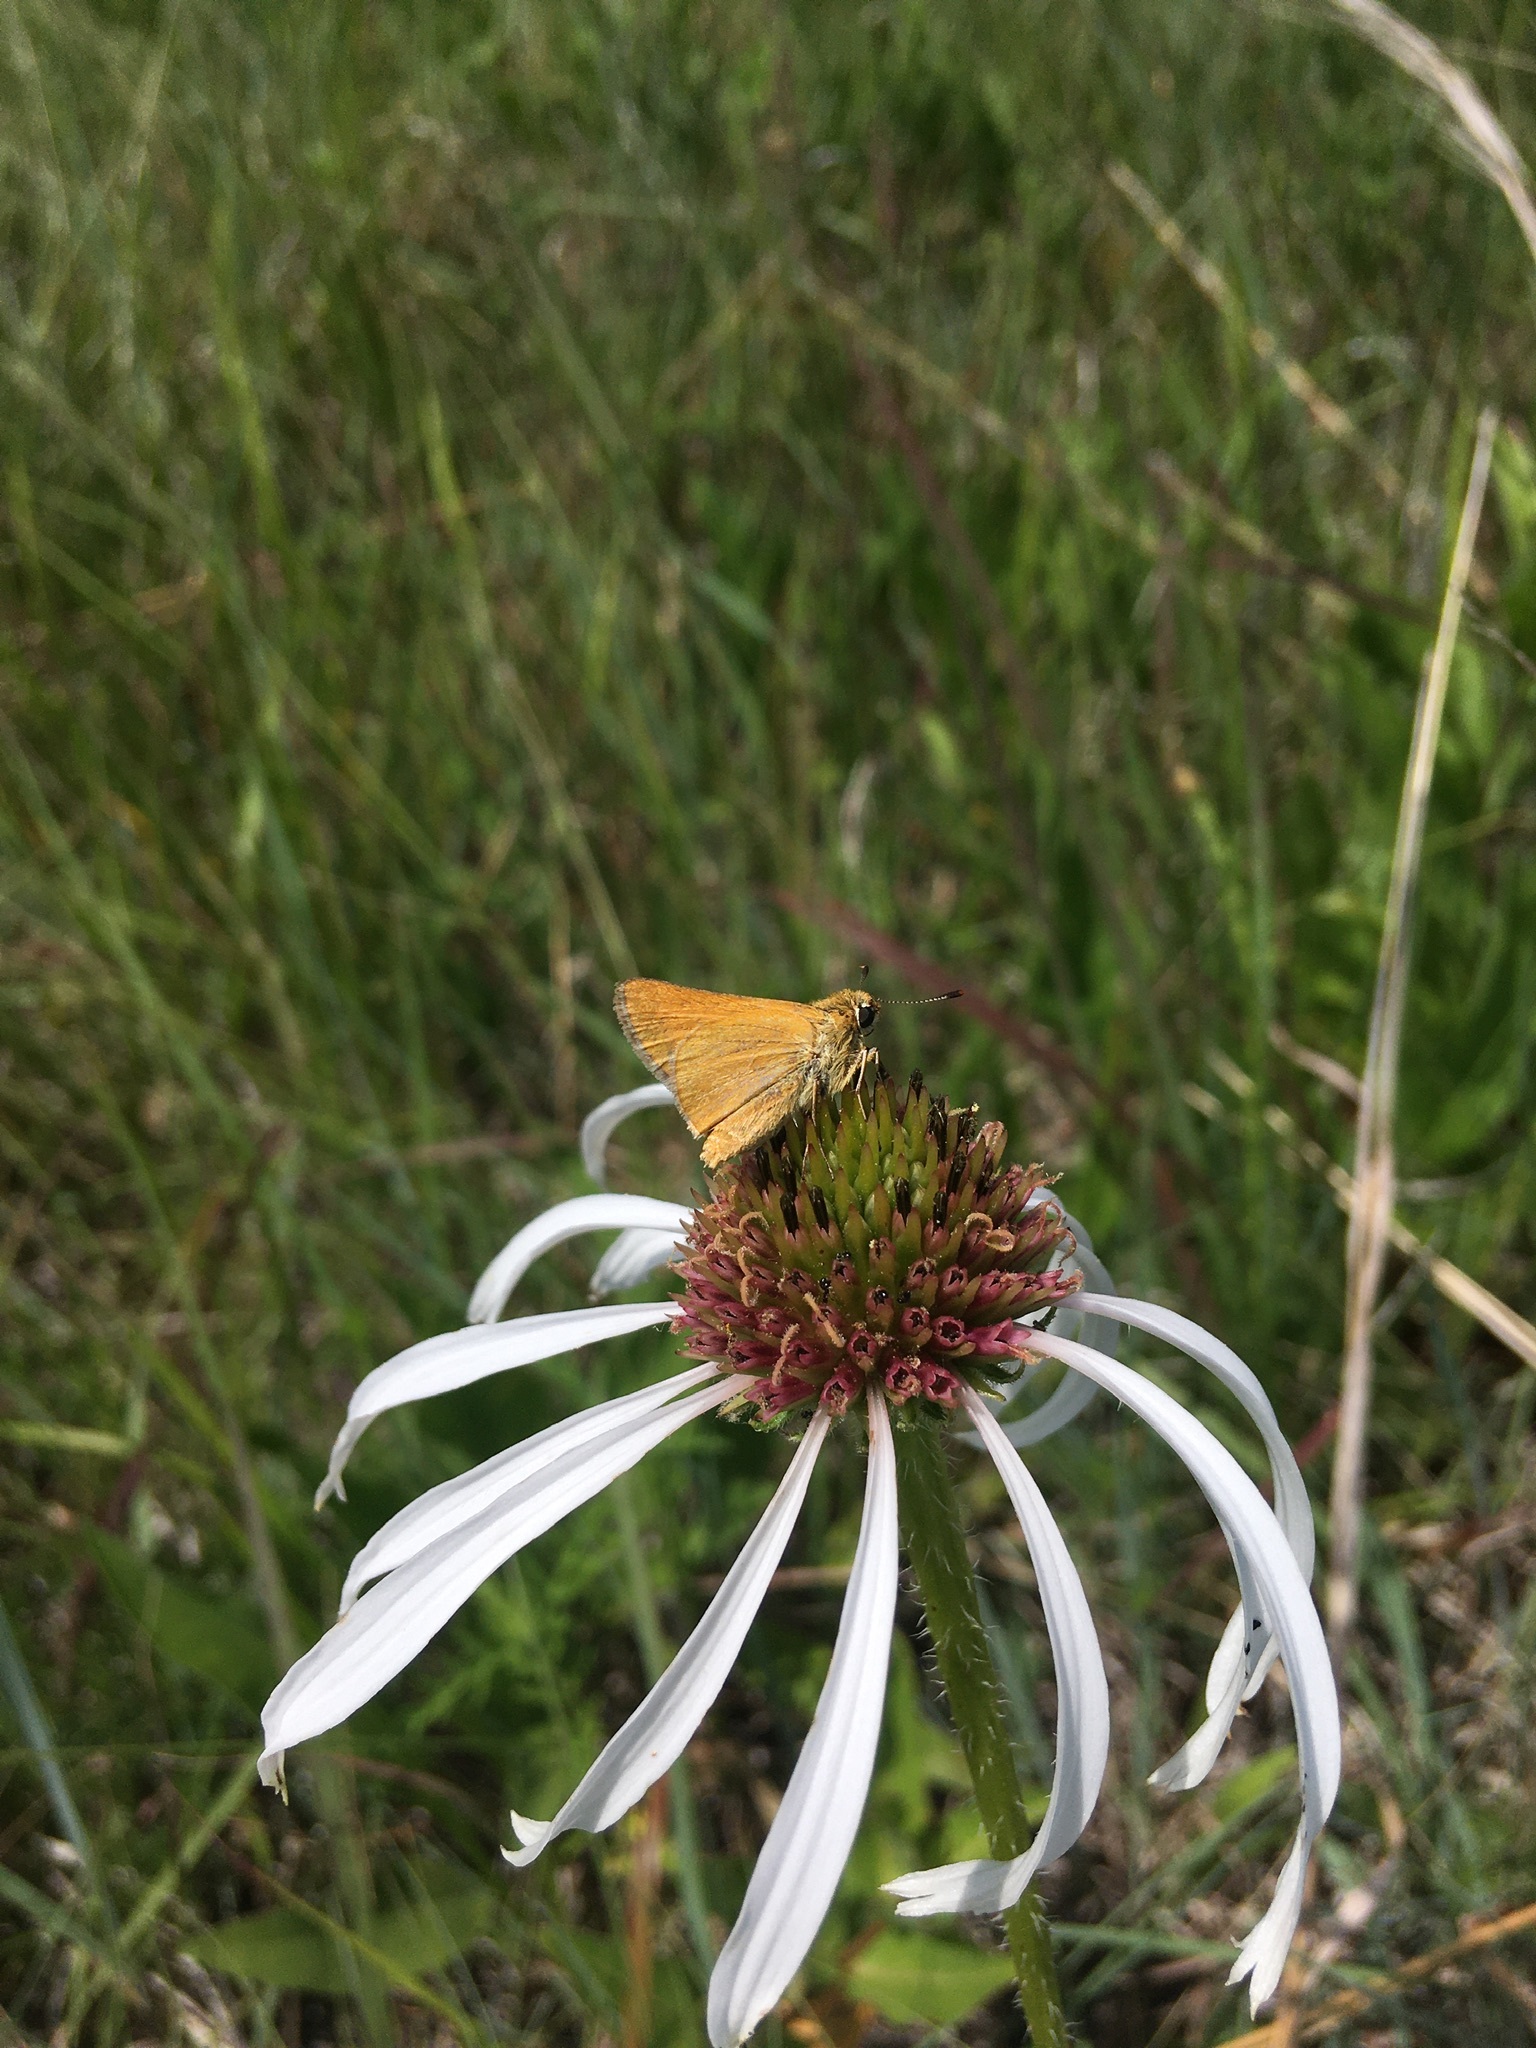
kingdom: Animalia
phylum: Arthropoda
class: Insecta
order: Lepidoptera
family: Hesperiidae
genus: Atrytone
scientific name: Atrytone arogos
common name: Arogos skipper
